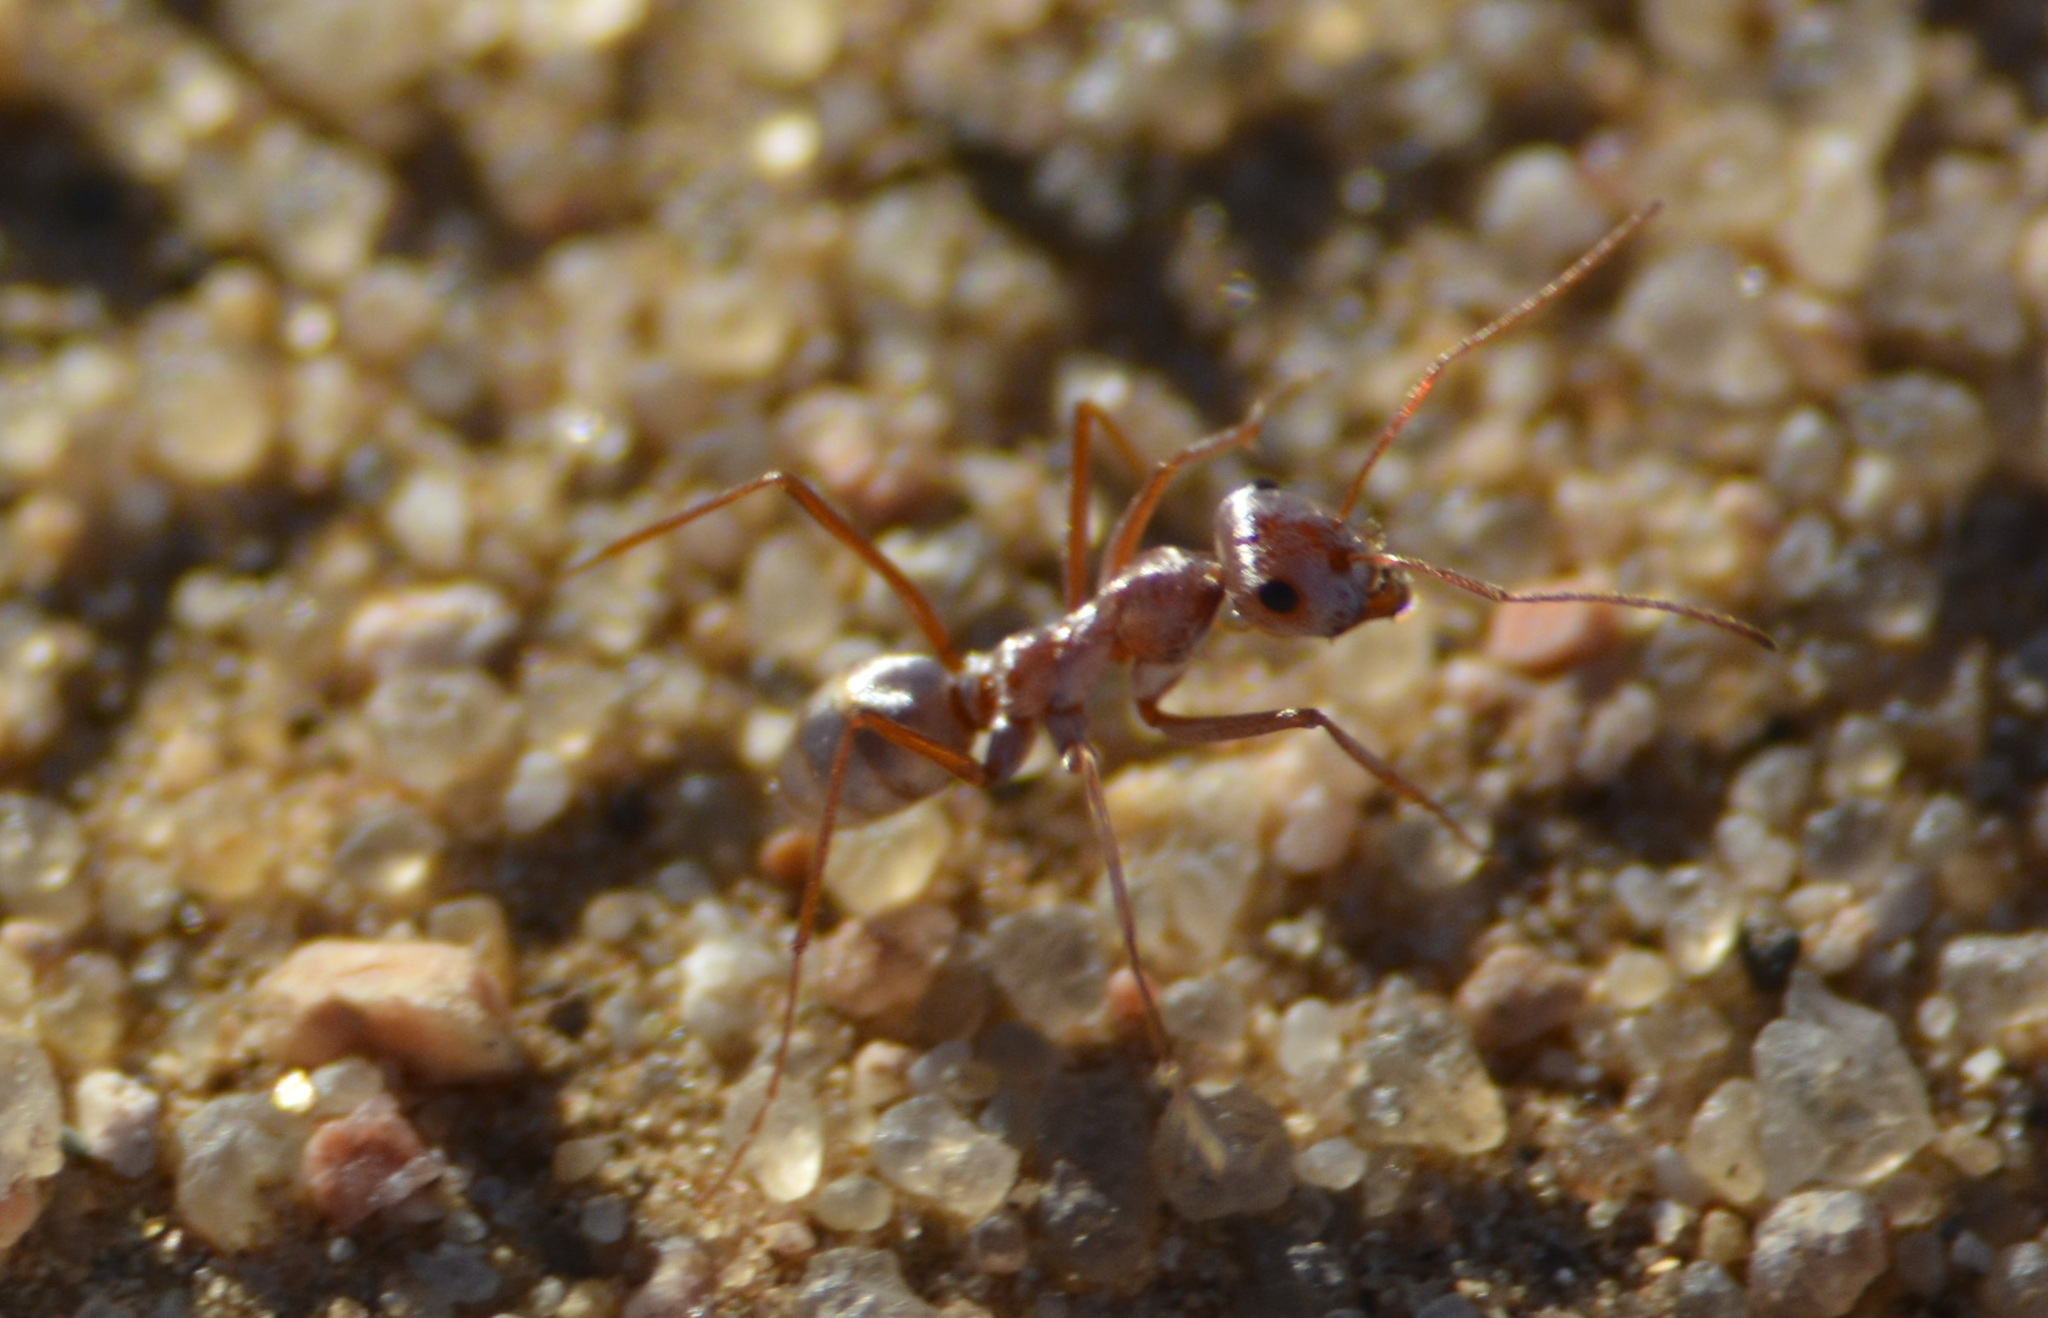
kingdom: Animalia
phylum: Arthropoda
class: Insecta
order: Hymenoptera
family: Formicidae
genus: Cataglyphis
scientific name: Cataglyphis bombycinus
